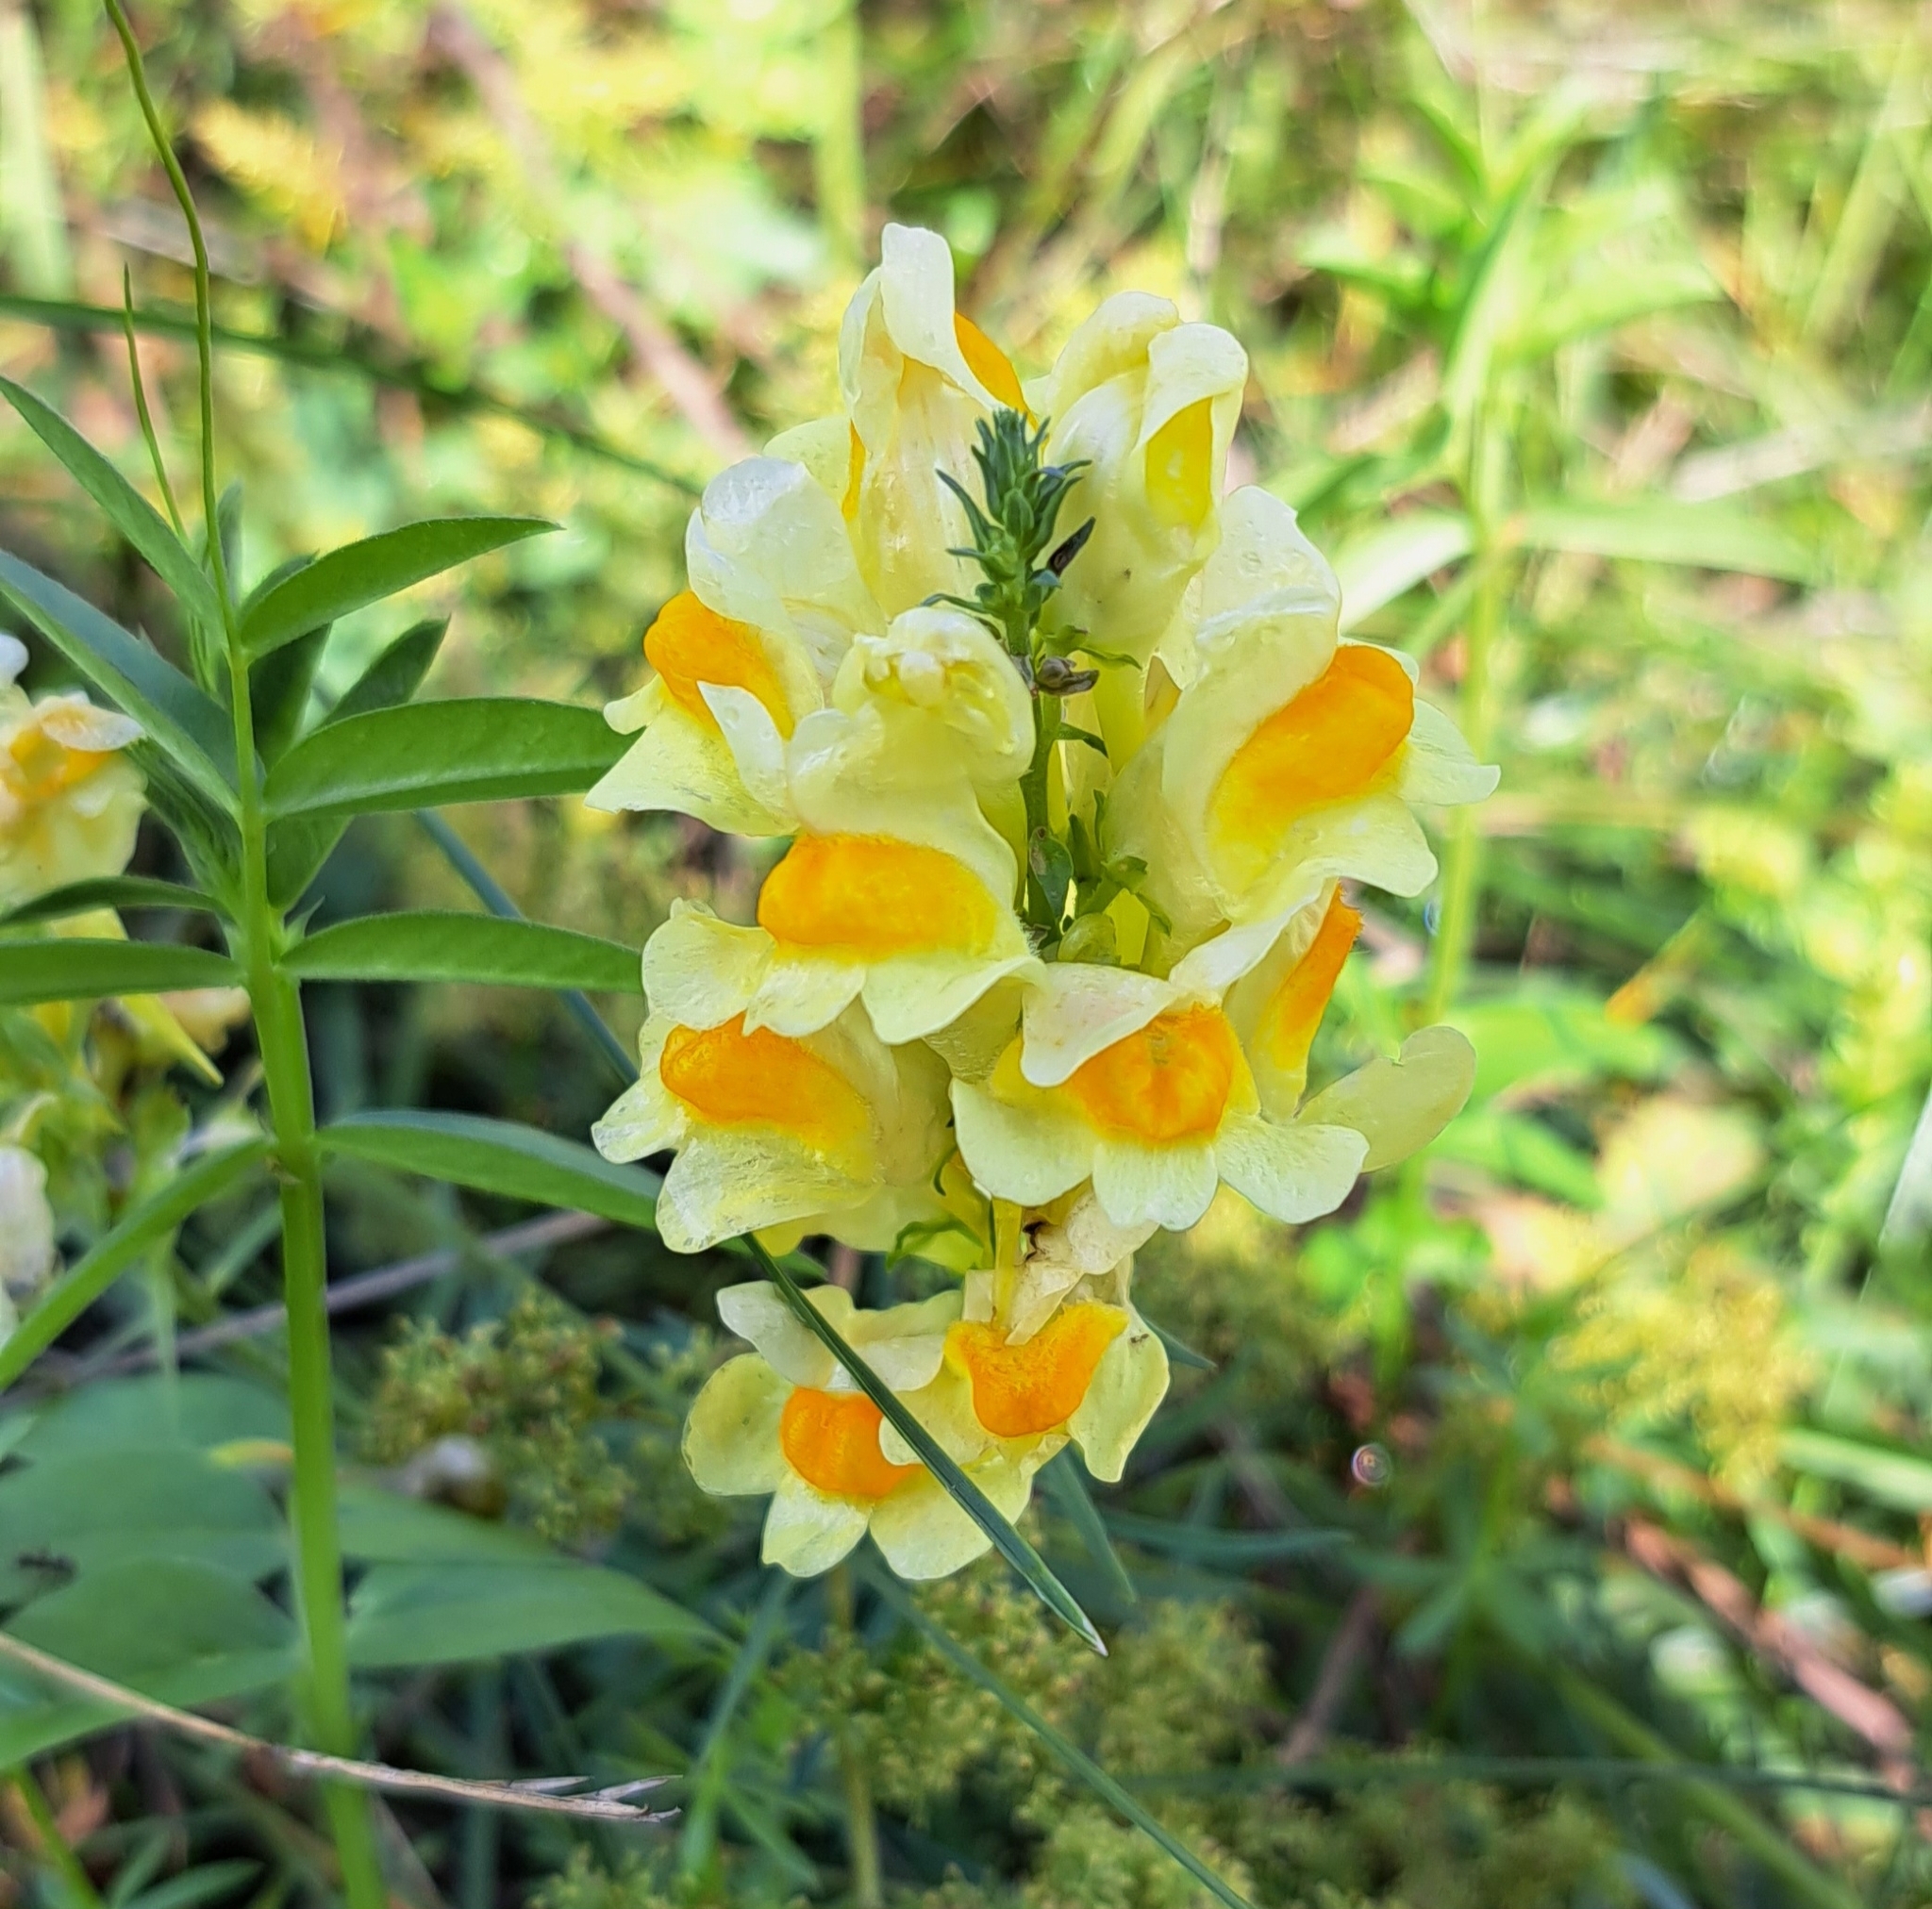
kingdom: Plantae
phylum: Tracheophyta
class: Magnoliopsida
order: Lamiales
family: Plantaginaceae
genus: Linaria
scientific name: Linaria vulgaris
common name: Butter and eggs
